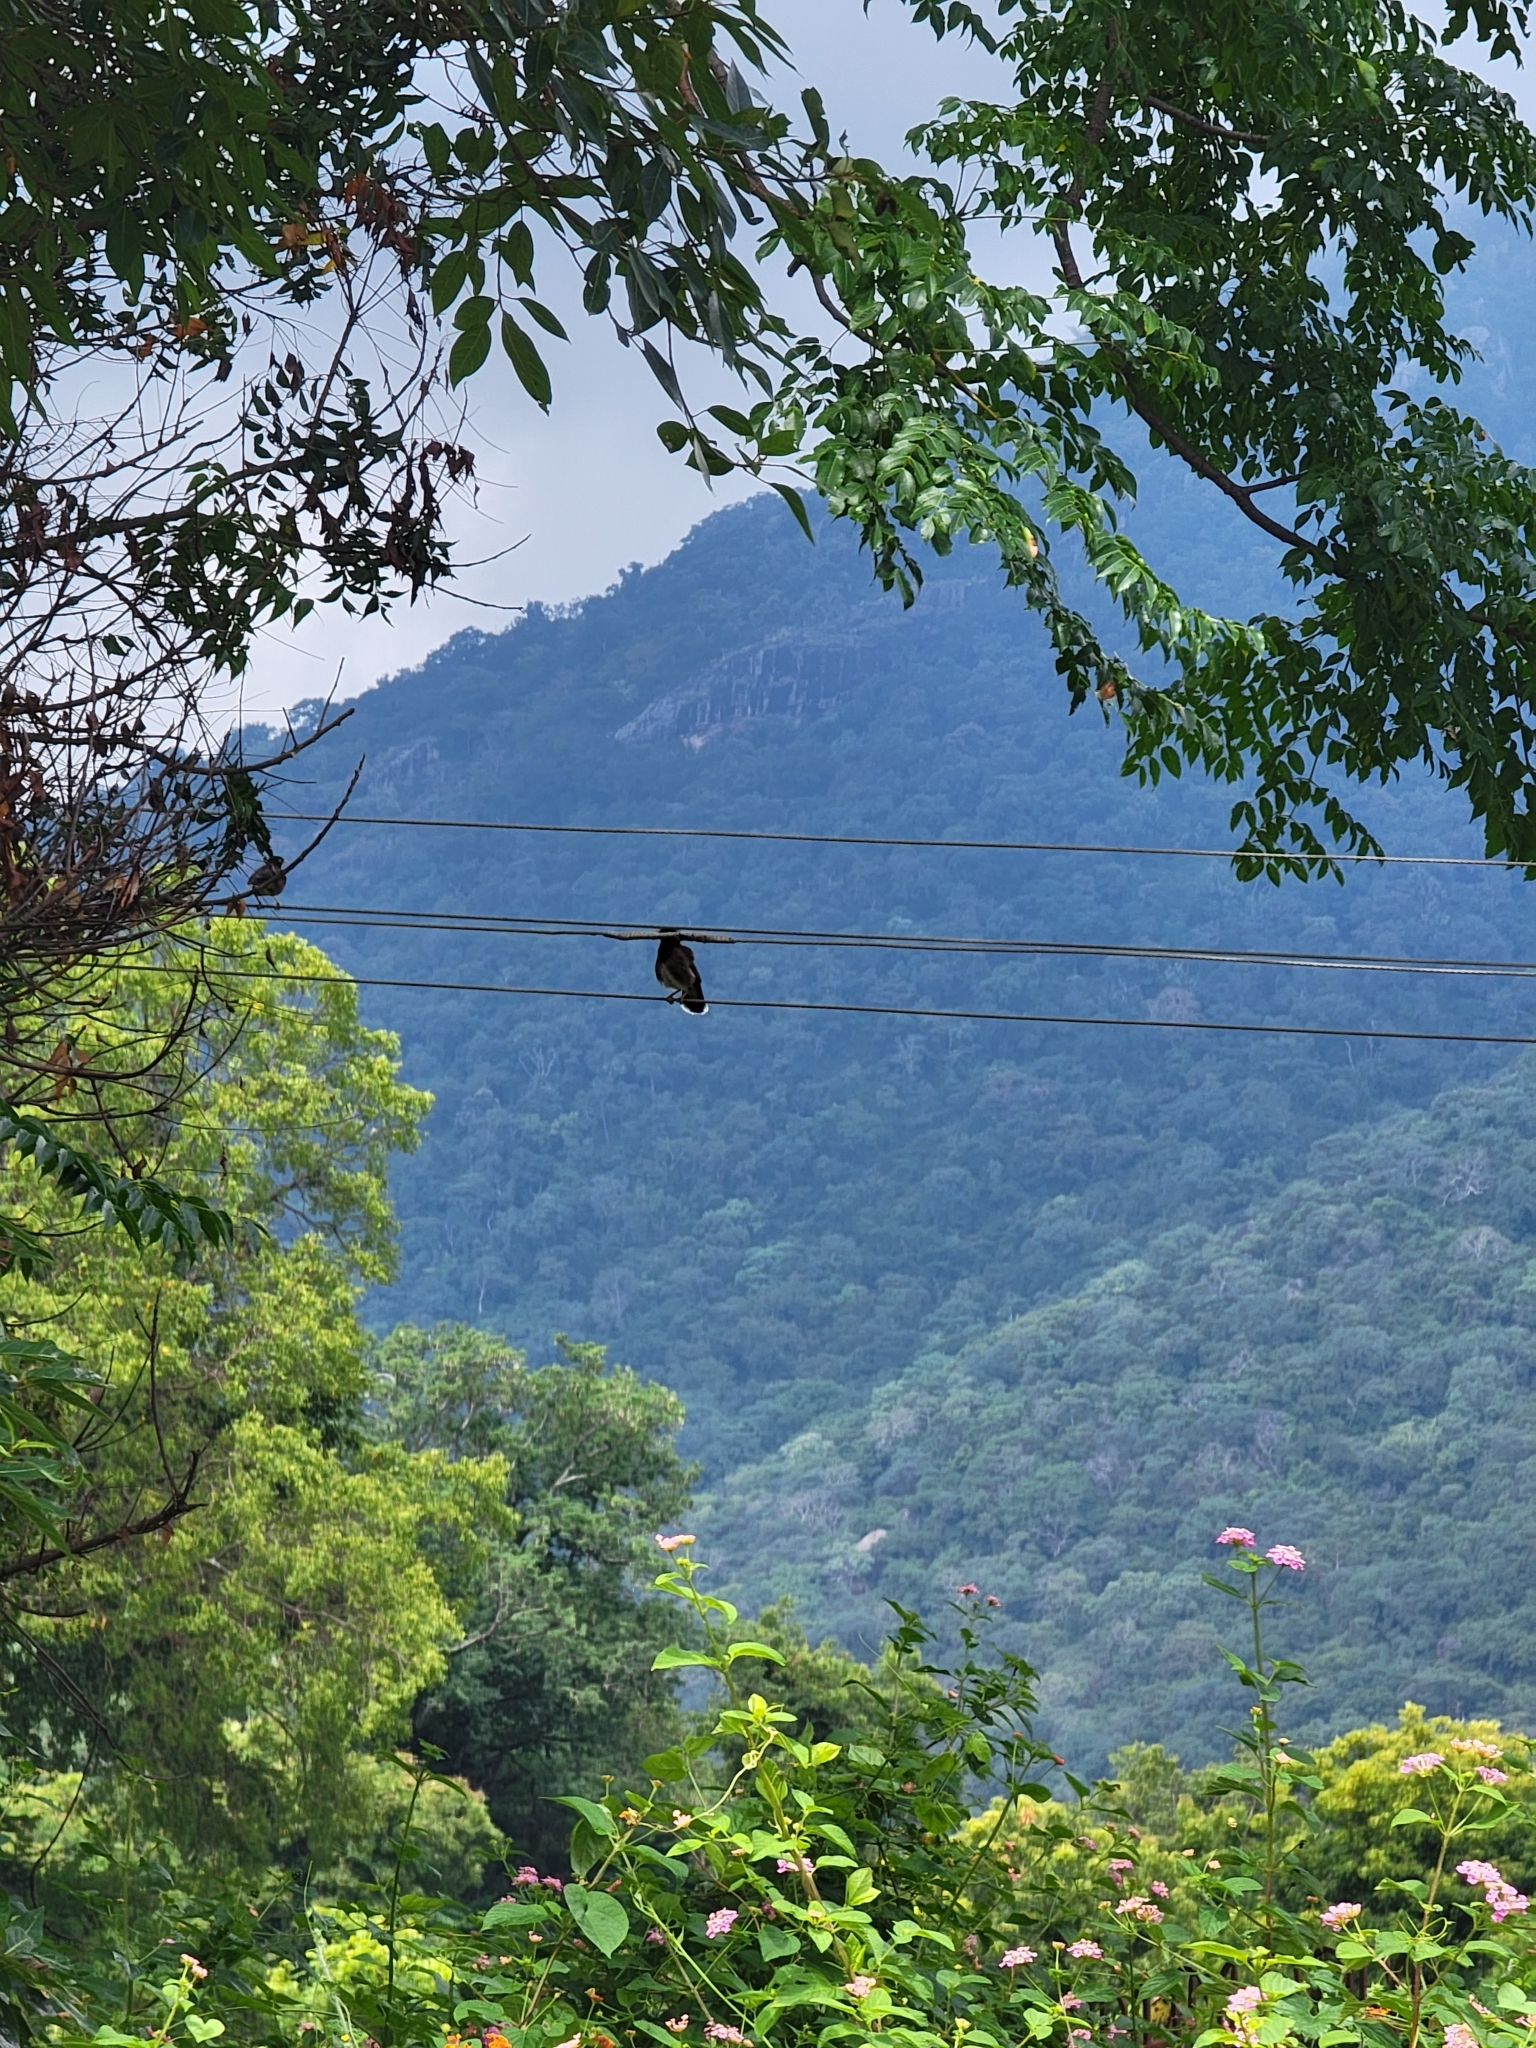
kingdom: Animalia
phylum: Chordata
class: Aves
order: Passeriformes
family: Sturnidae
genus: Acridotheres
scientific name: Acridotheres tristis
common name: Common myna
